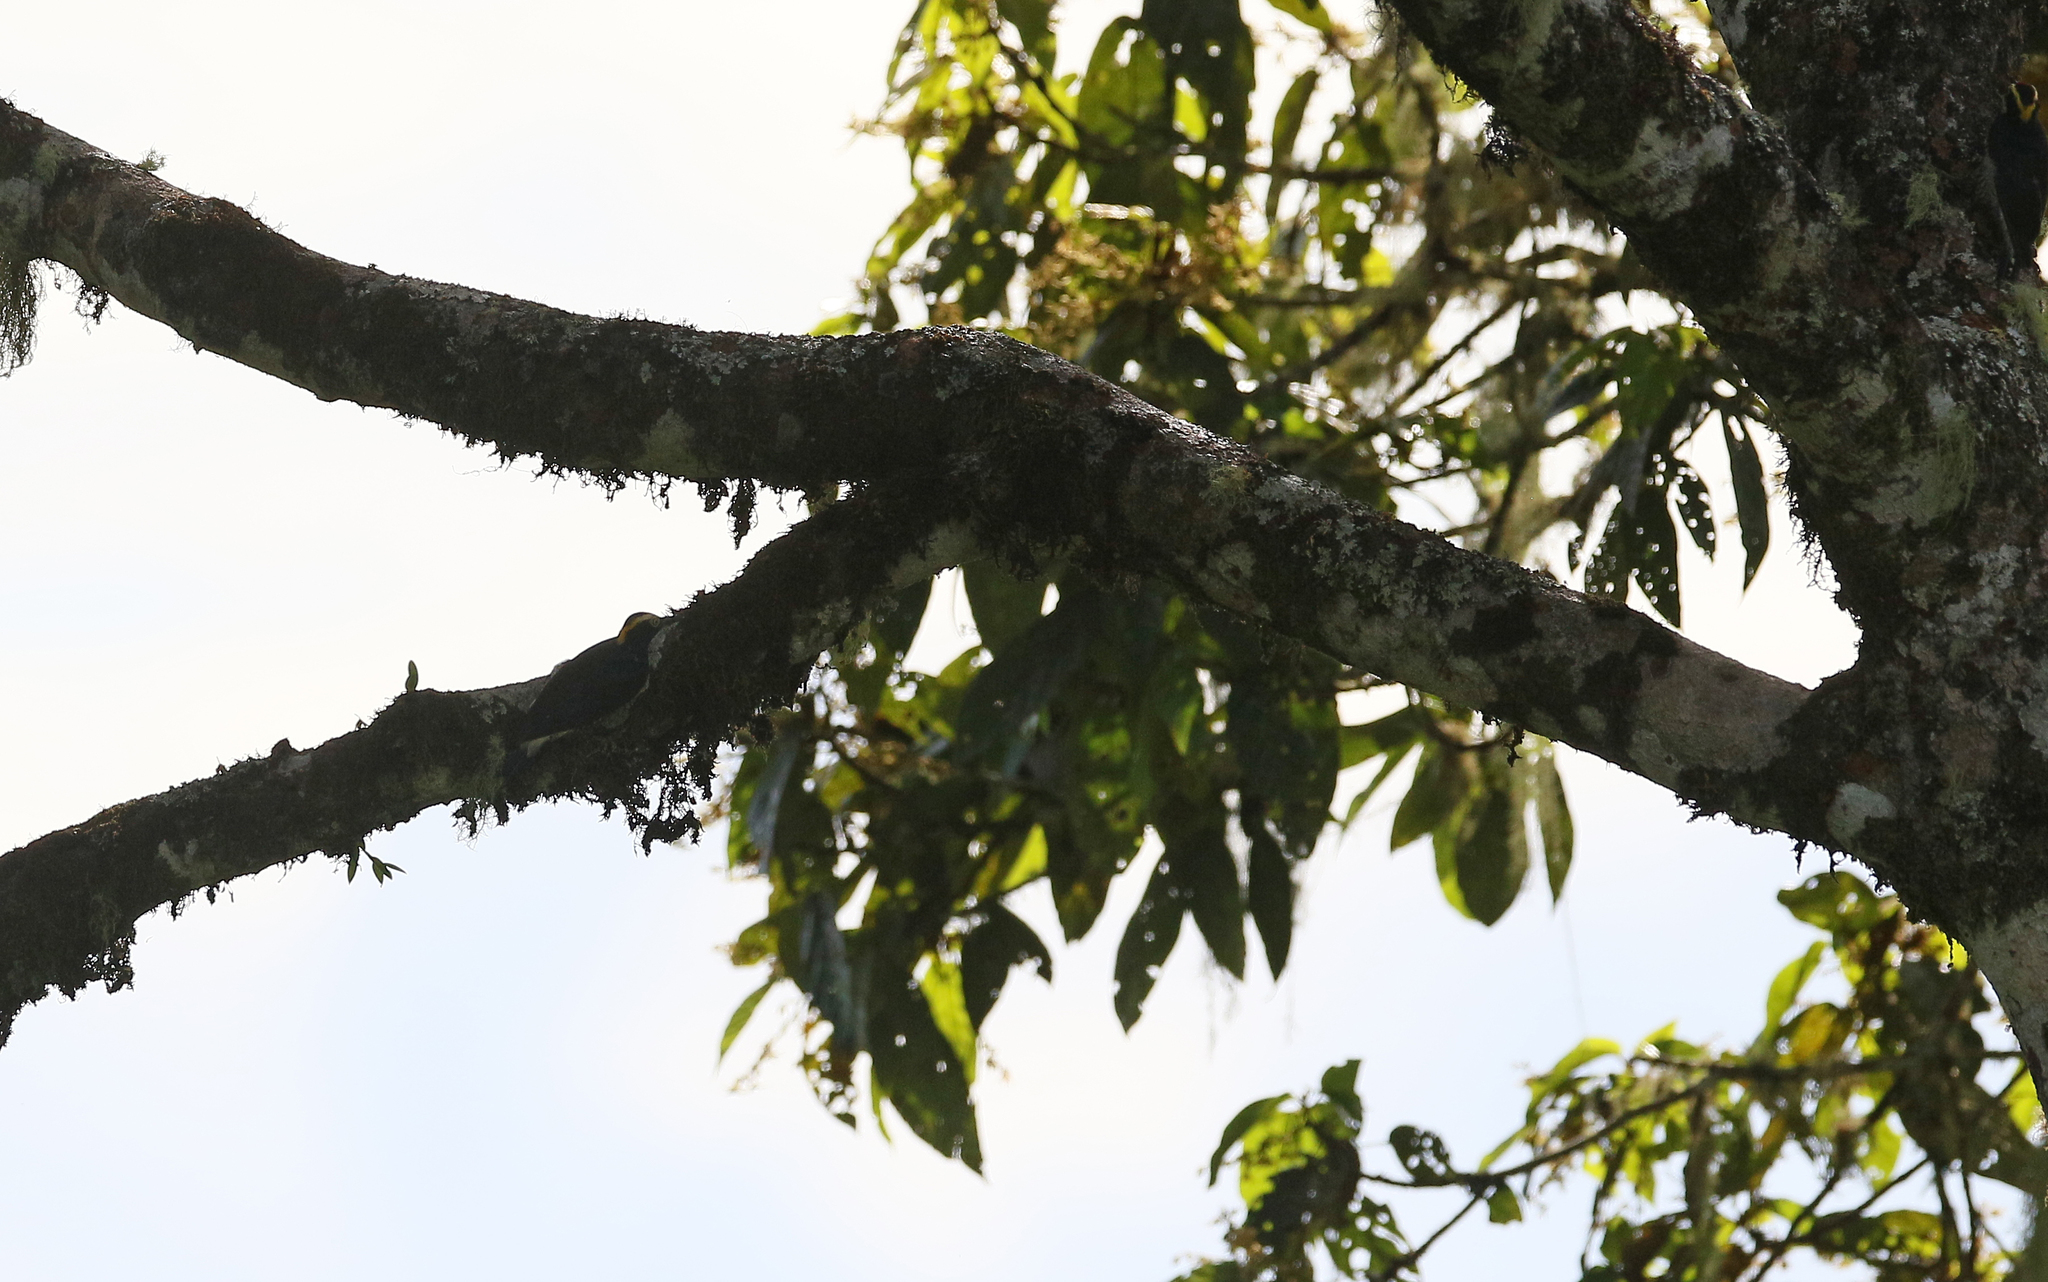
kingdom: Animalia
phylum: Chordata
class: Aves
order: Piciformes
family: Picidae
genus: Melanerpes
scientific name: Melanerpes cruentatus
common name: Yellow-tufted woodpecker
